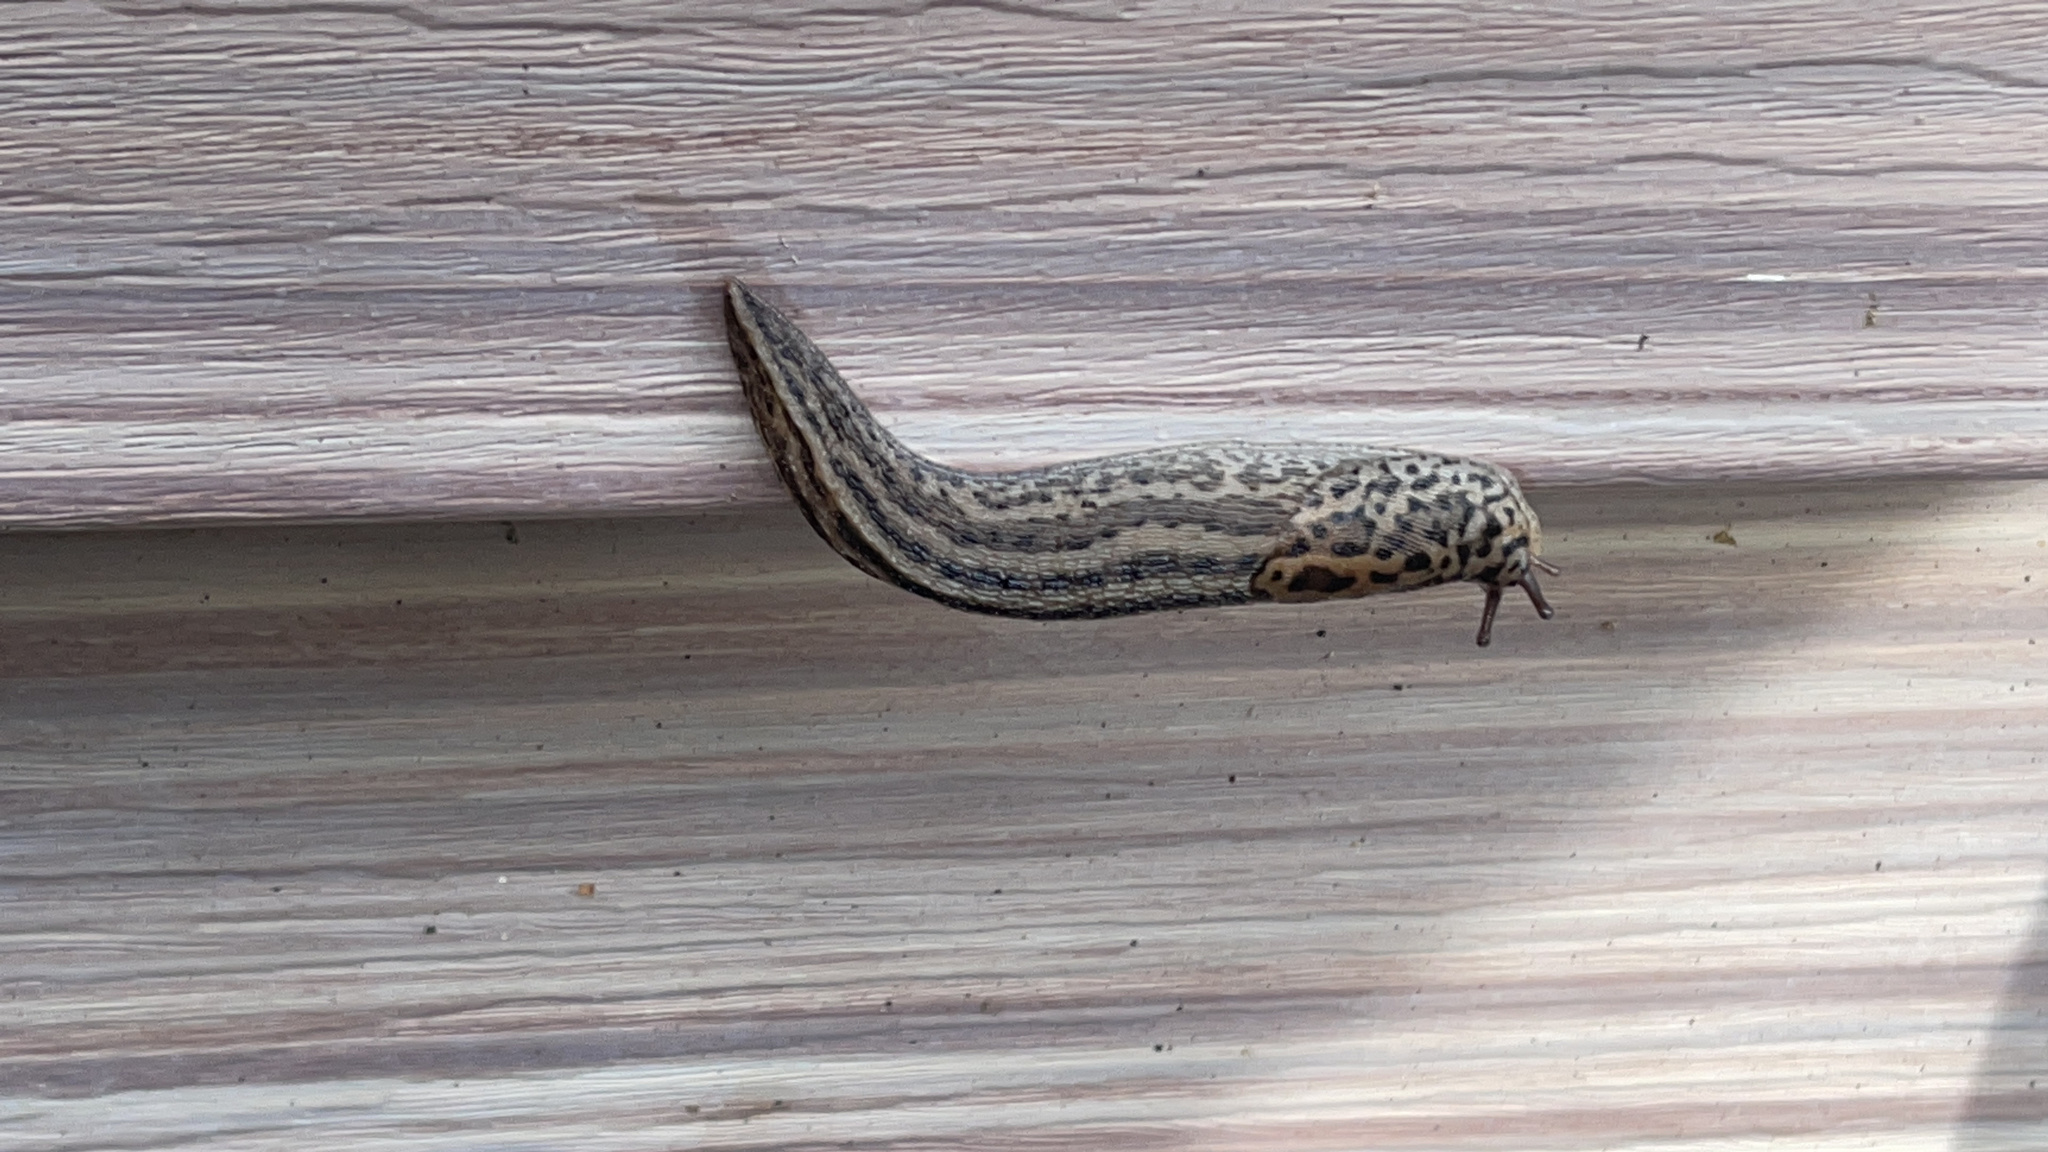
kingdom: Animalia
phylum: Mollusca
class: Gastropoda
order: Stylommatophora
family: Limacidae
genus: Limax
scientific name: Limax maximus
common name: Great grey slug
